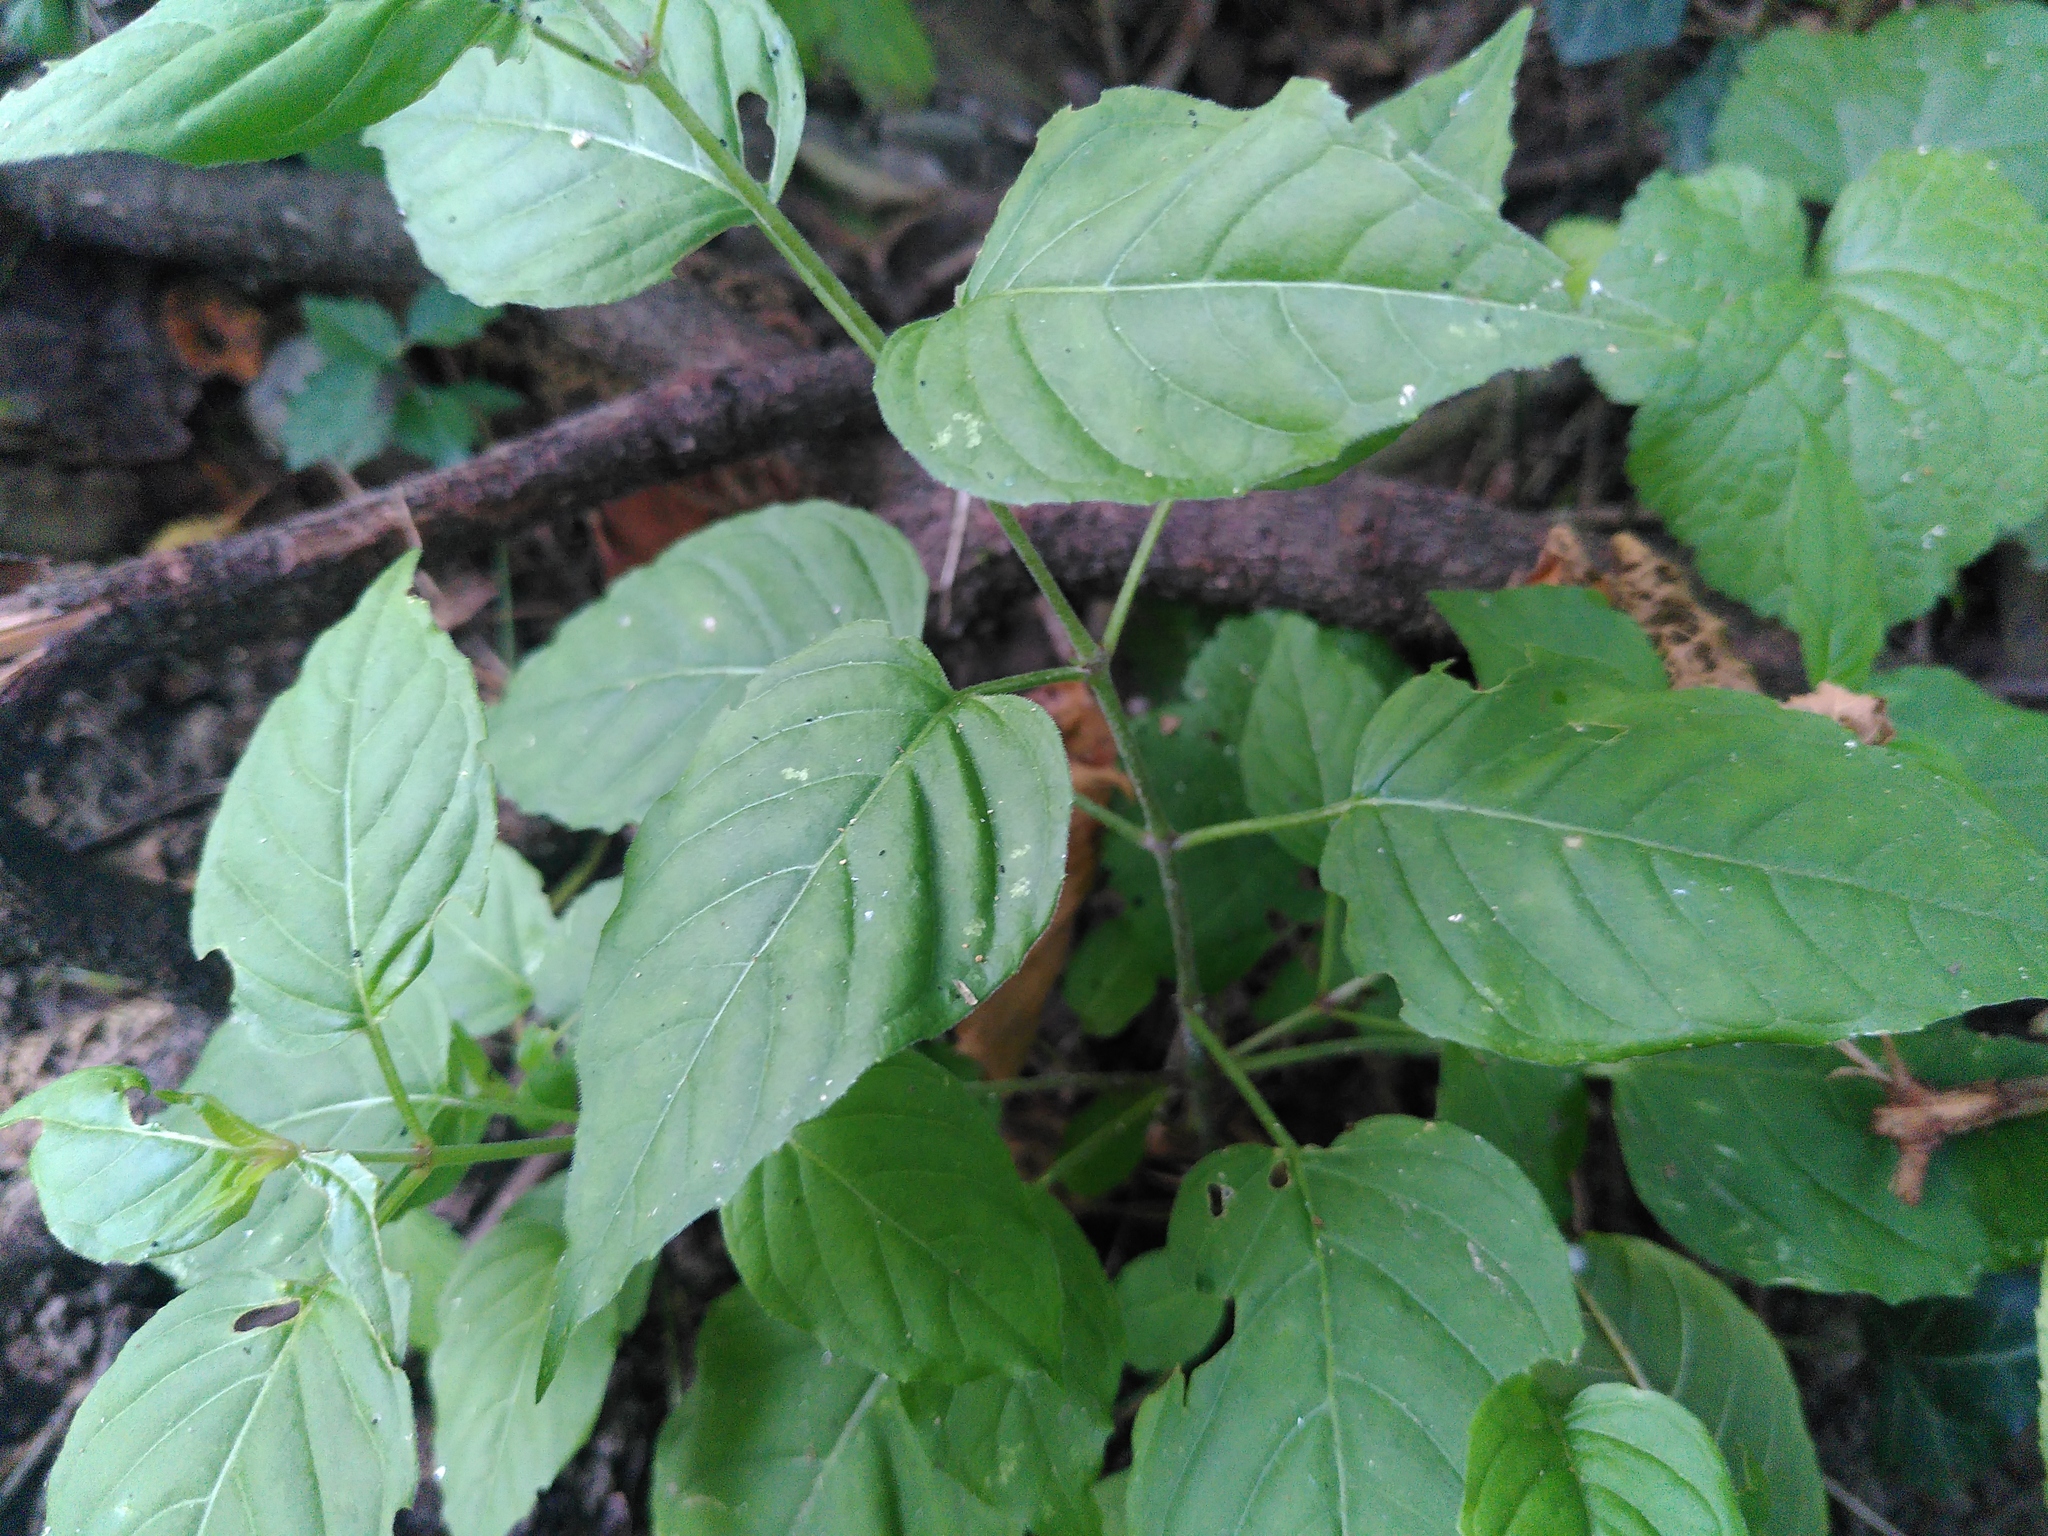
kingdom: Plantae
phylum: Tracheophyta
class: Magnoliopsida
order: Myrtales
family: Onagraceae
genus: Circaea
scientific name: Circaea lutetiana
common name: Enchanter's-nightshade
